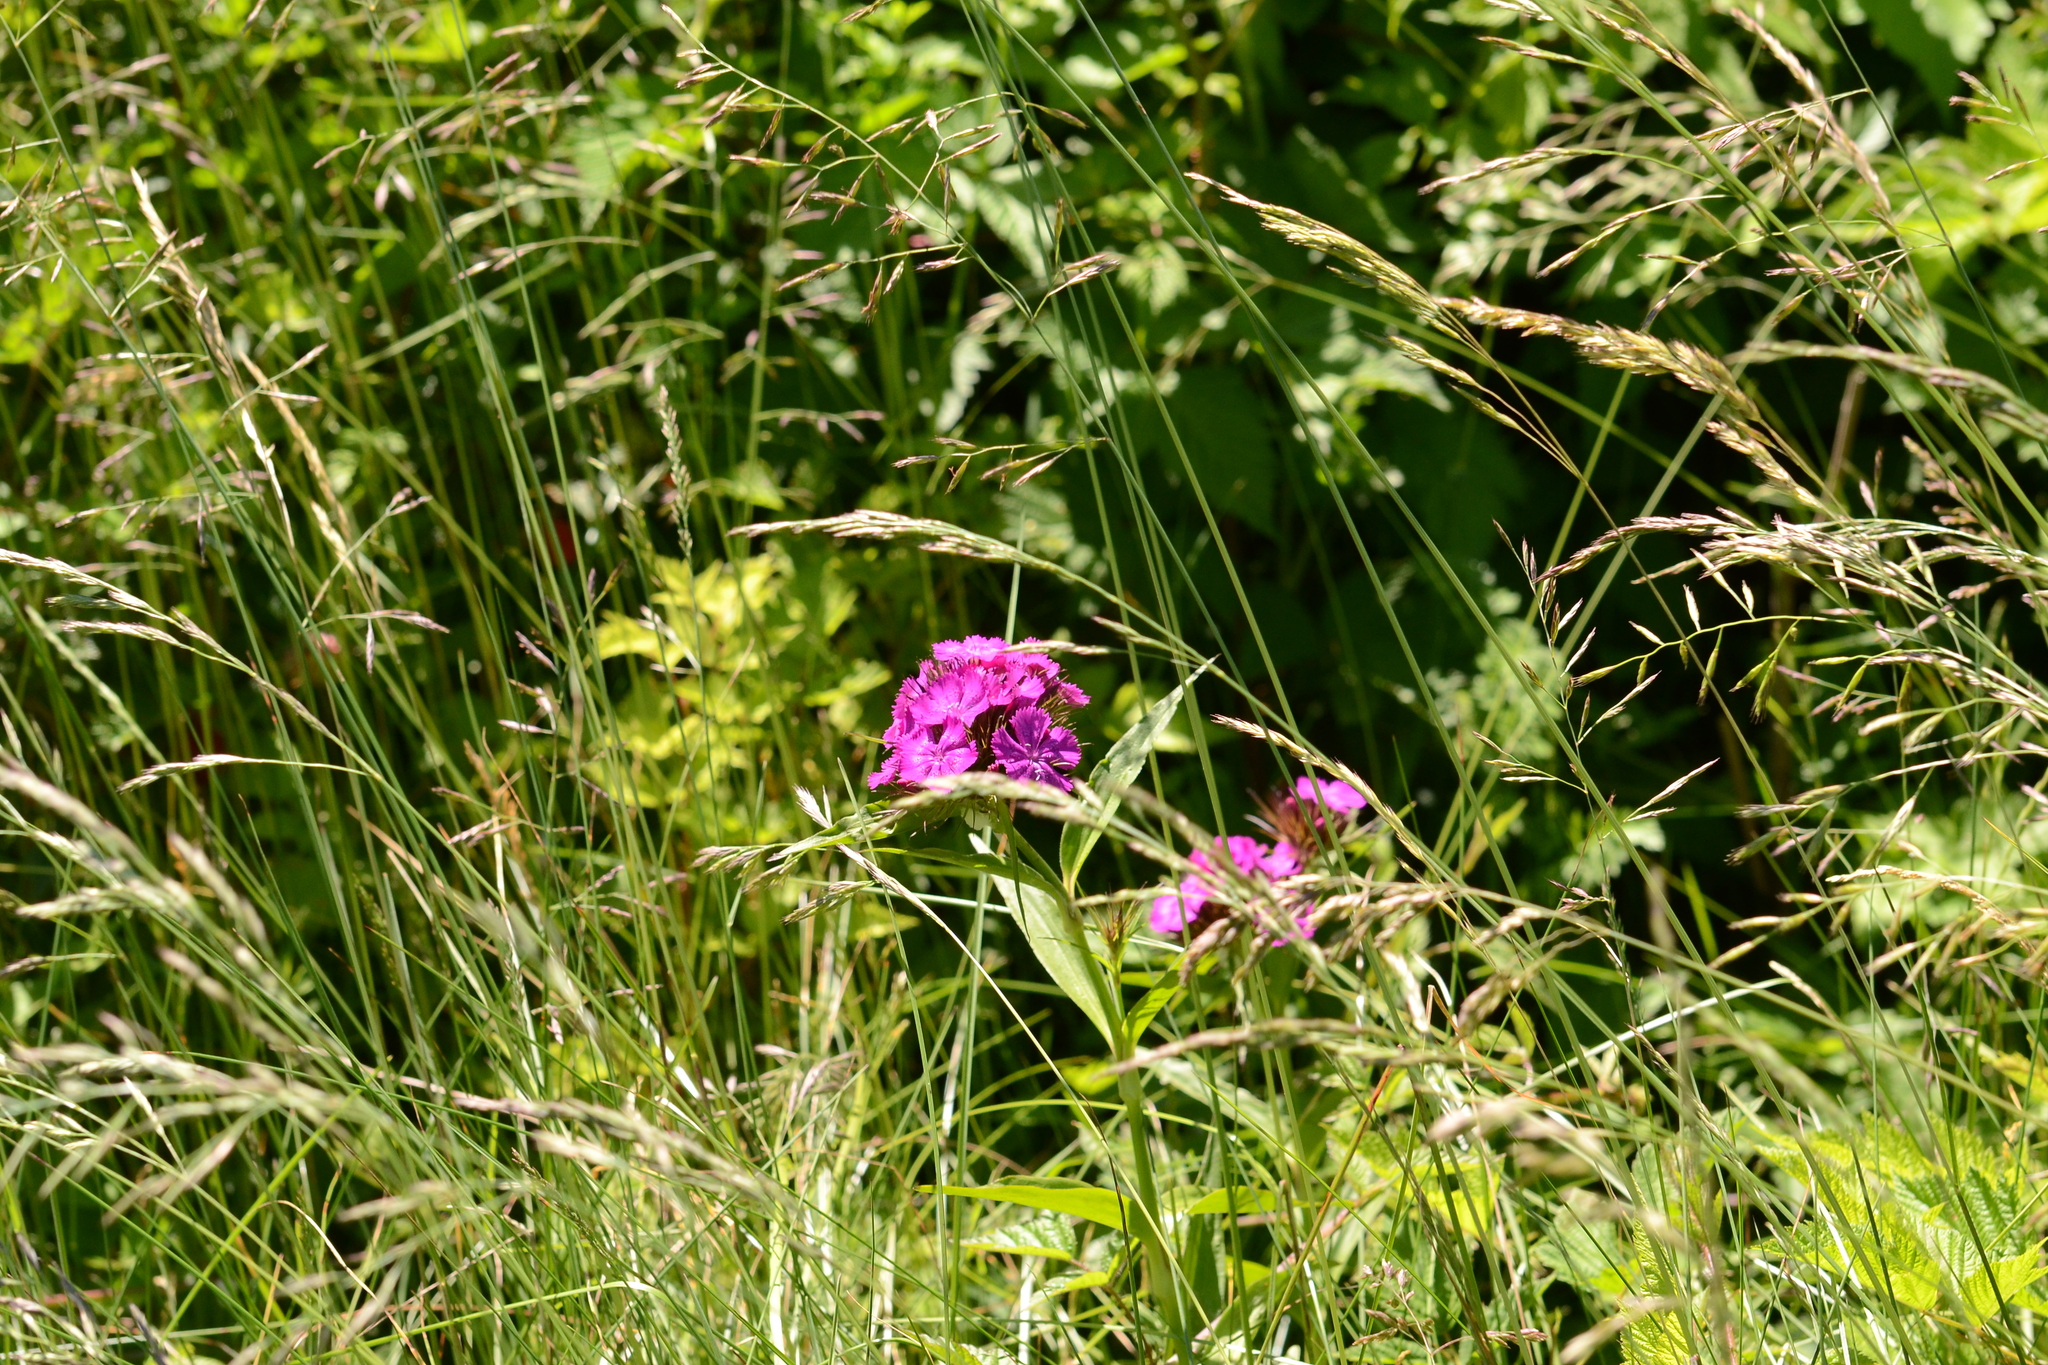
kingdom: Plantae
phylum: Tracheophyta
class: Magnoliopsida
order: Caryophyllales
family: Caryophyllaceae
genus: Dianthus
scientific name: Dianthus barbatus
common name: Sweet-william
